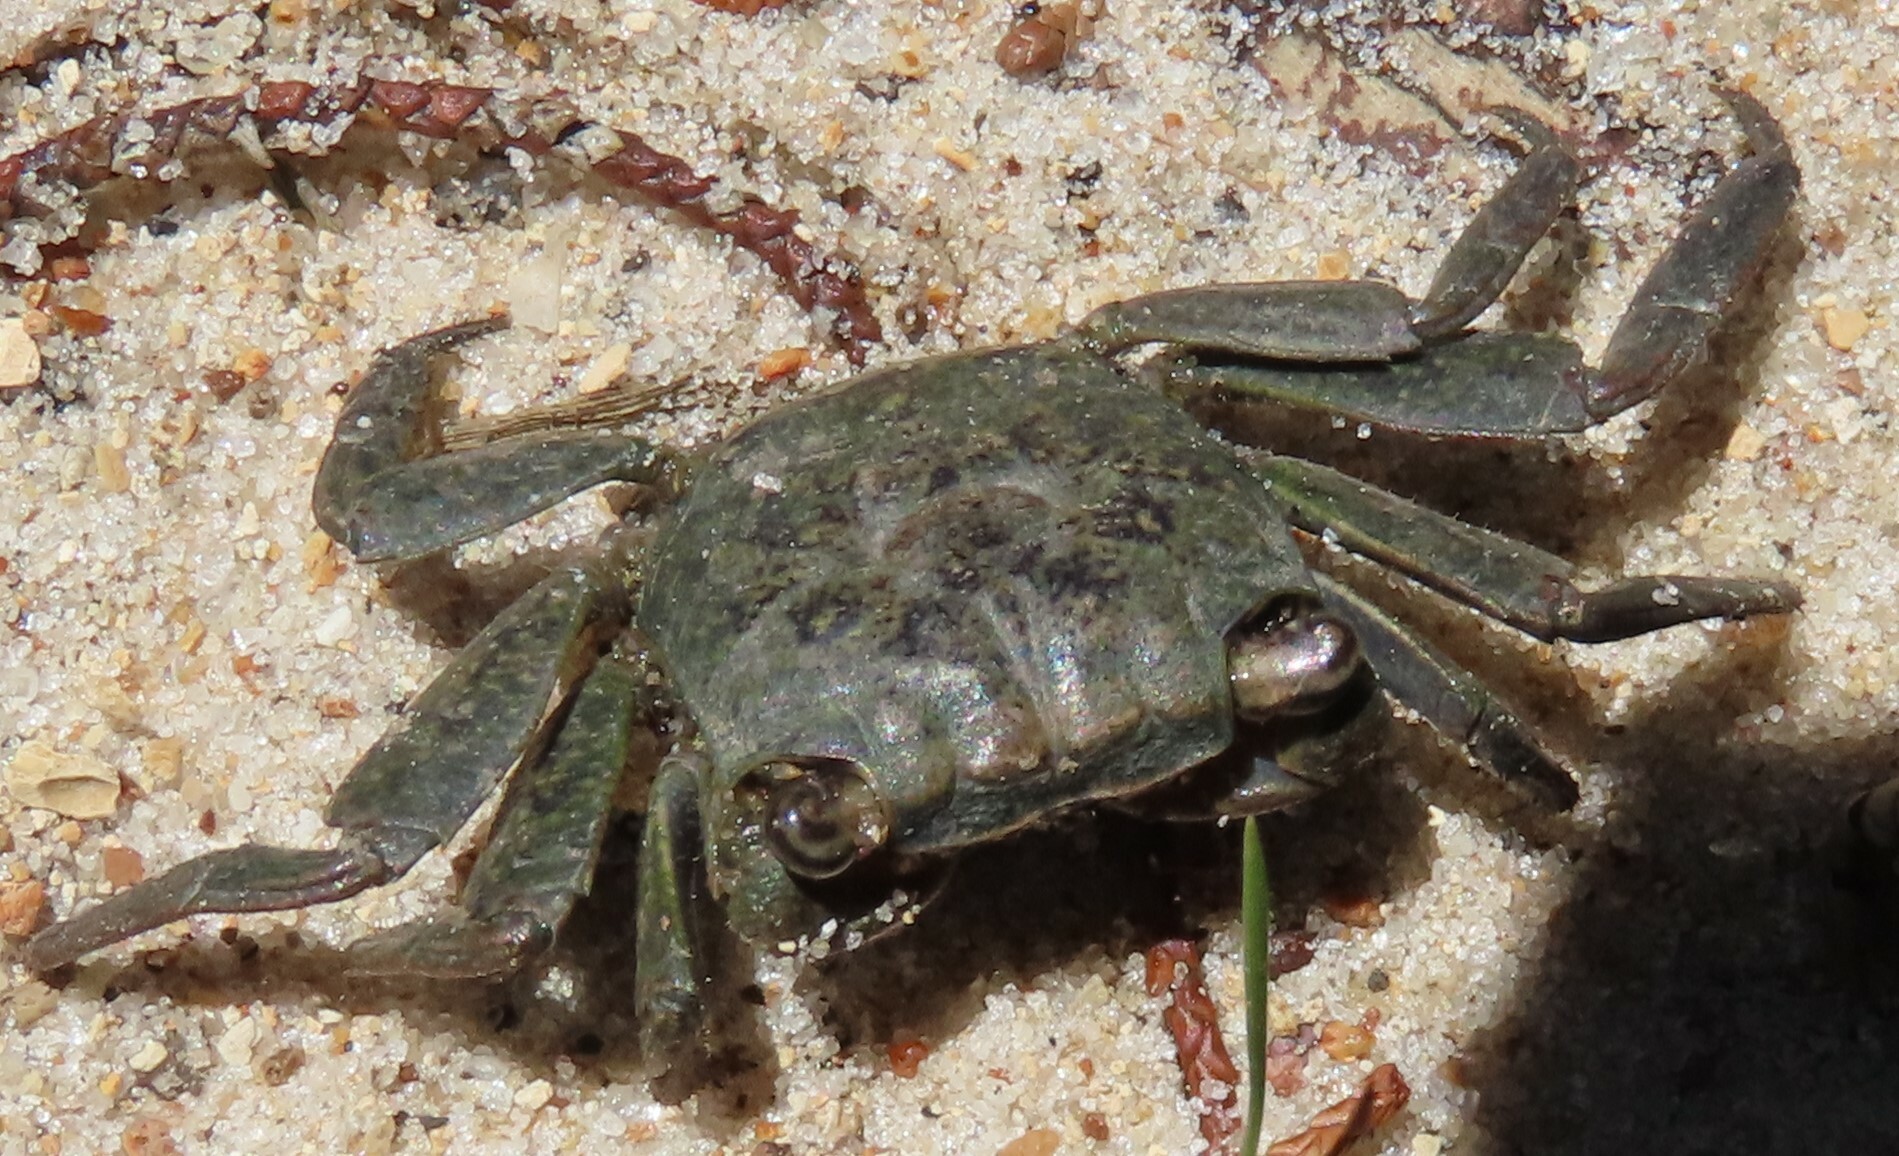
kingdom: Animalia
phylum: Arthropoda
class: Malacostraca
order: Decapoda
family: Sesarmidae
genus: Armases
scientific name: Armases cinereum
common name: Squareback marsh crab
